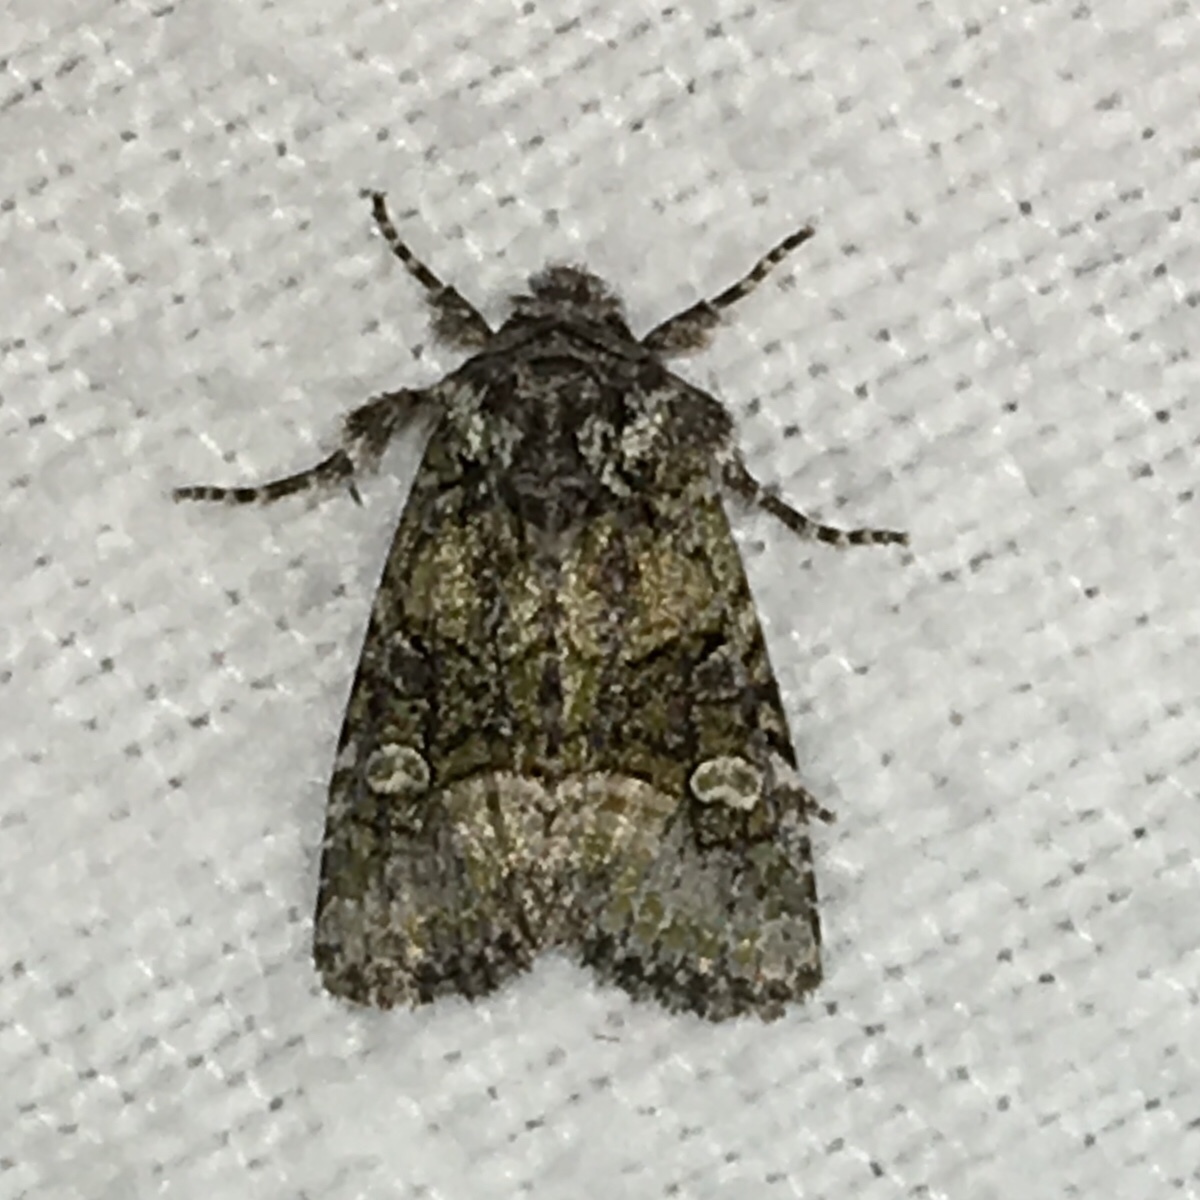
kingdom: Animalia
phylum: Arthropoda
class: Insecta
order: Lepidoptera
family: Noctuidae
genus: Lacinipolia
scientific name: Lacinipolia olivacea
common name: Olive arches moth
